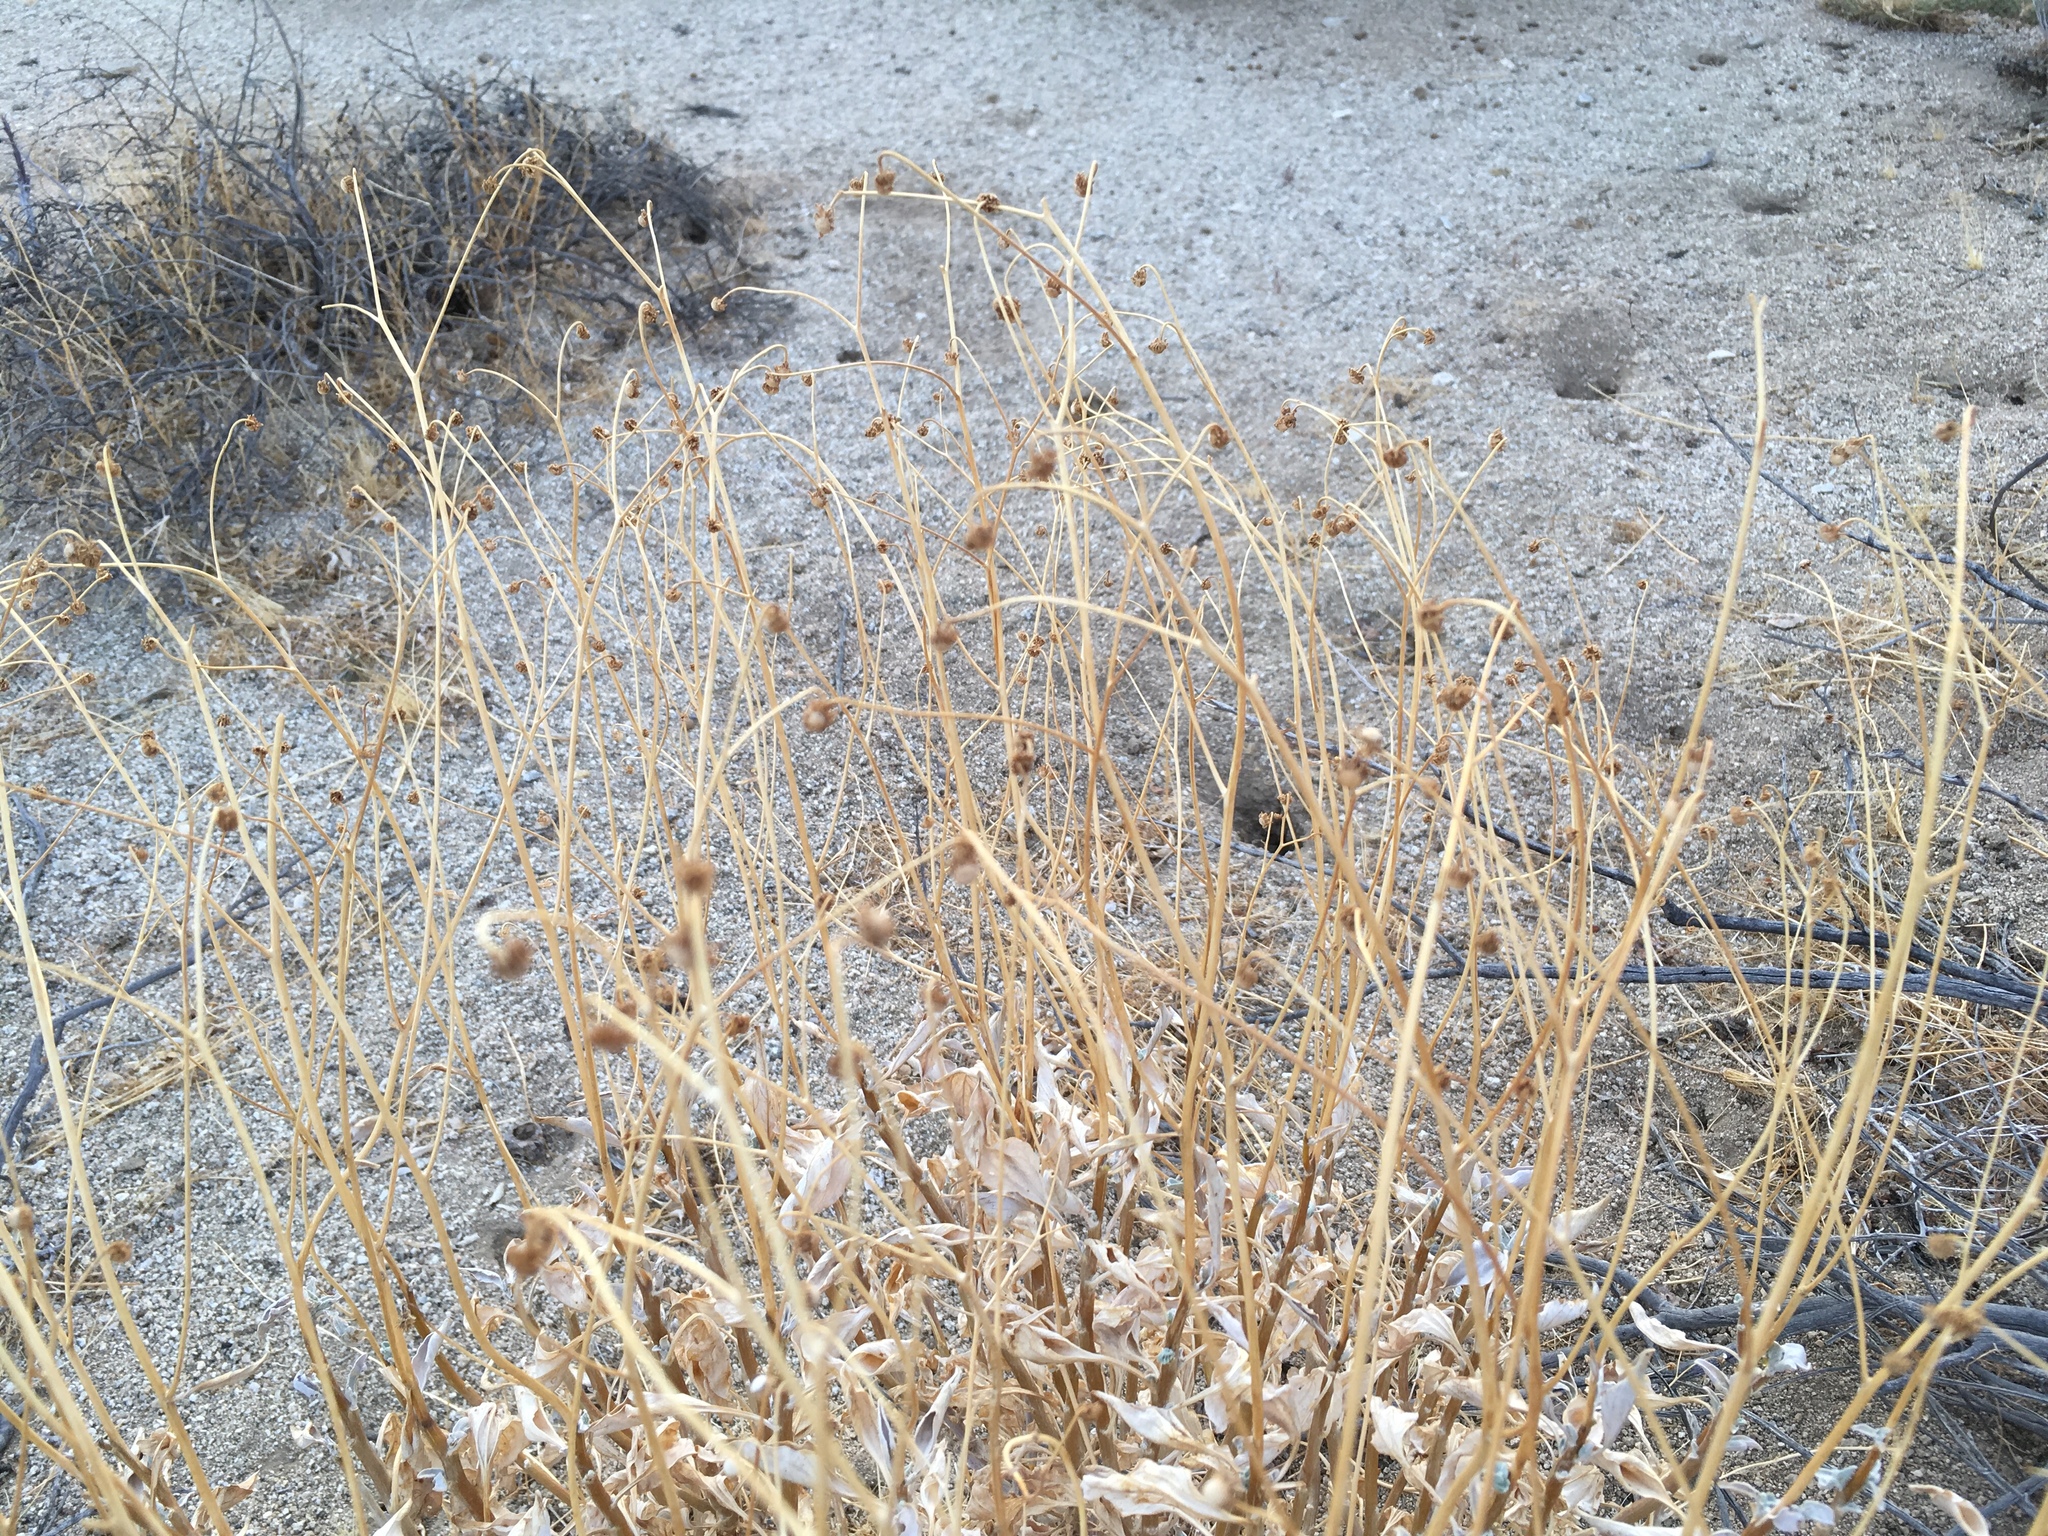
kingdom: Plantae
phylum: Tracheophyta
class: Magnoliopsida
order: Asterales
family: Asteraceae
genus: Encelia
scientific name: Encelia farinosa
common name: Brittlebush
